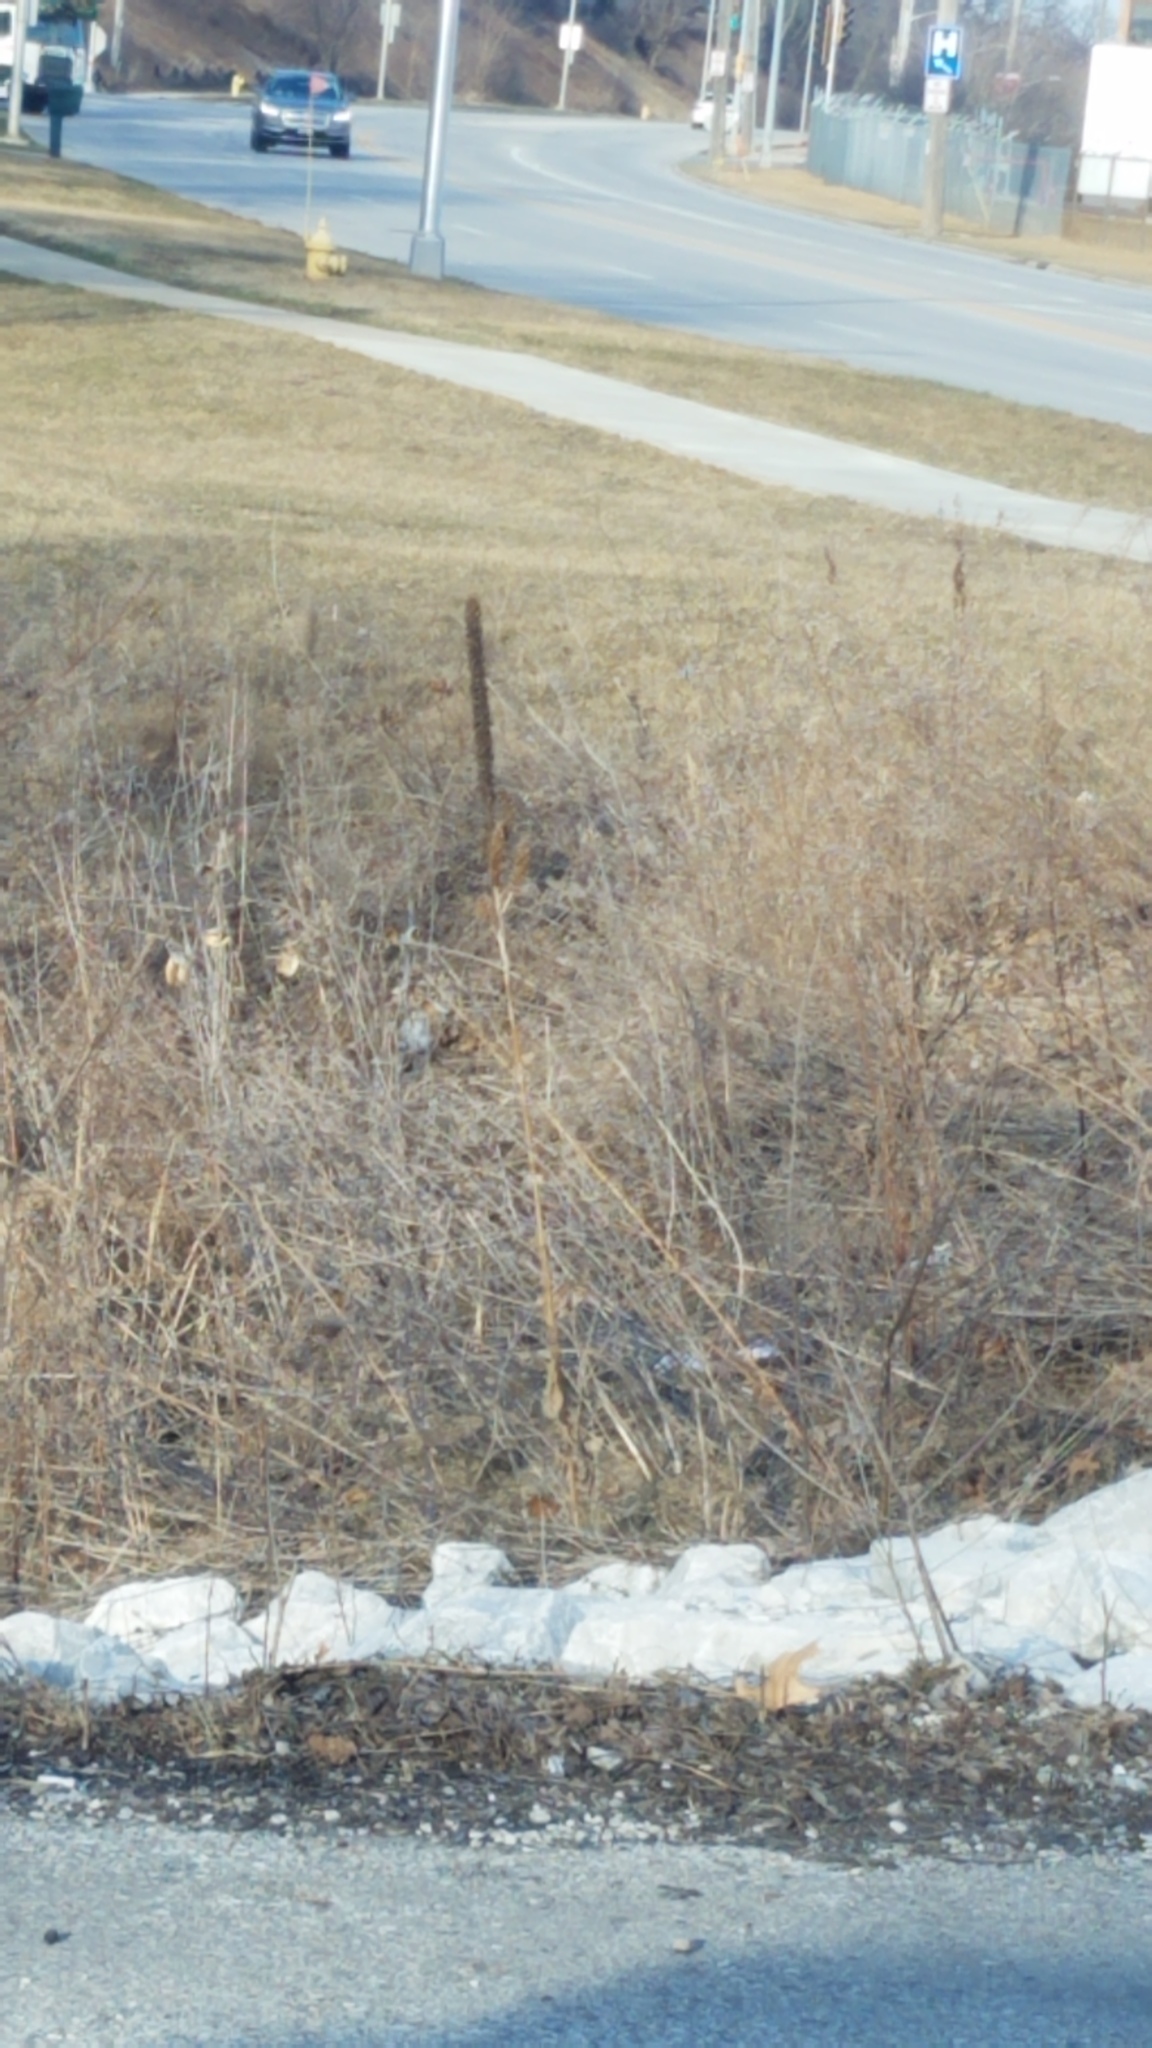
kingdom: Plantae
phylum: Tracheophyta
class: Magnoliopsida
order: Lamiales
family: Scrophulariaceae
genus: Verbascum
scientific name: Verbascum thapsus
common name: Common mullein
